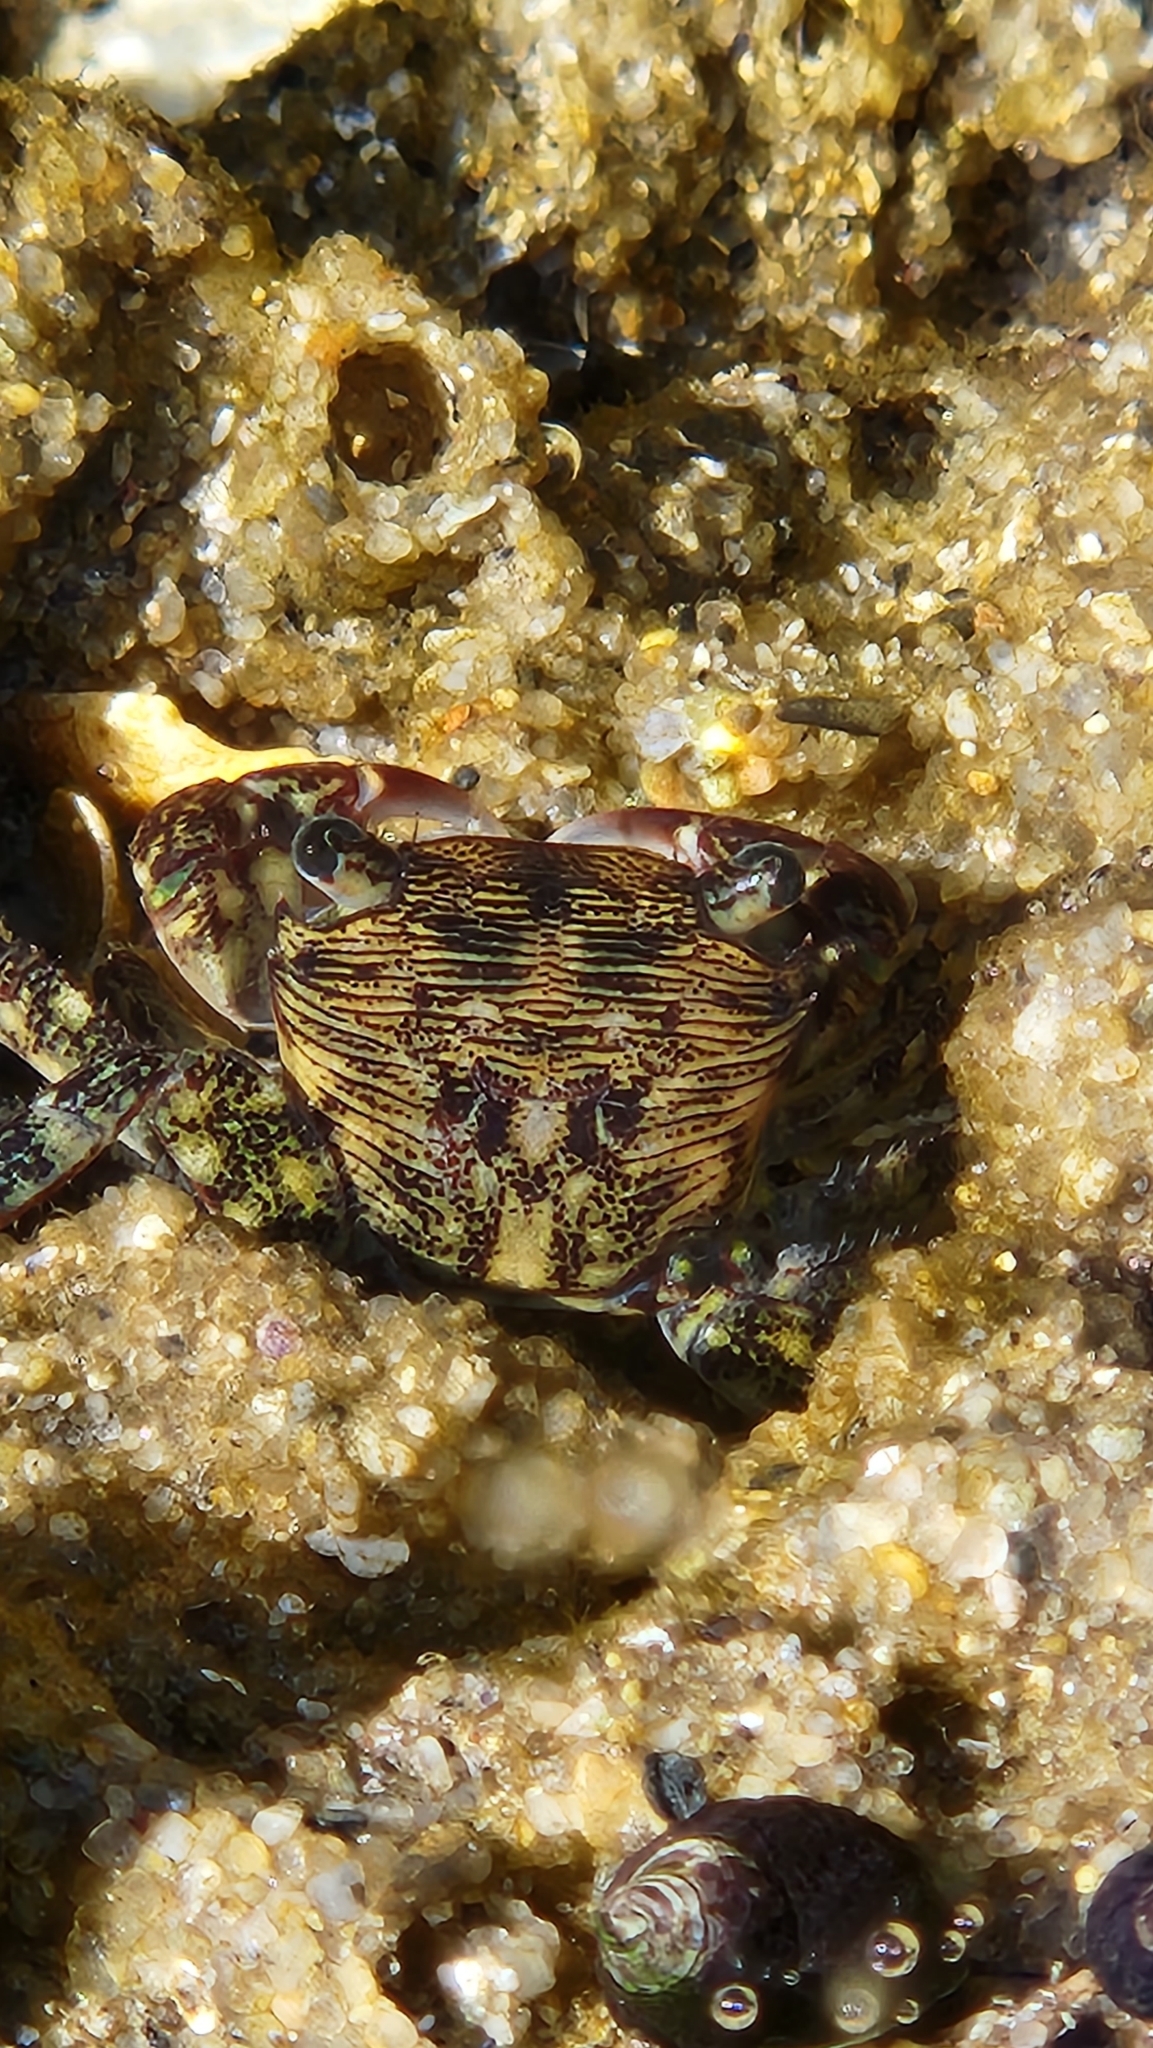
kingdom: Animalia
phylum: Arthropoda
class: Malacostraca
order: Decapoda
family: Grapsidae
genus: Pachygrapsus
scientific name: Pachygrapsus crassipes
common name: Striped shore crab
